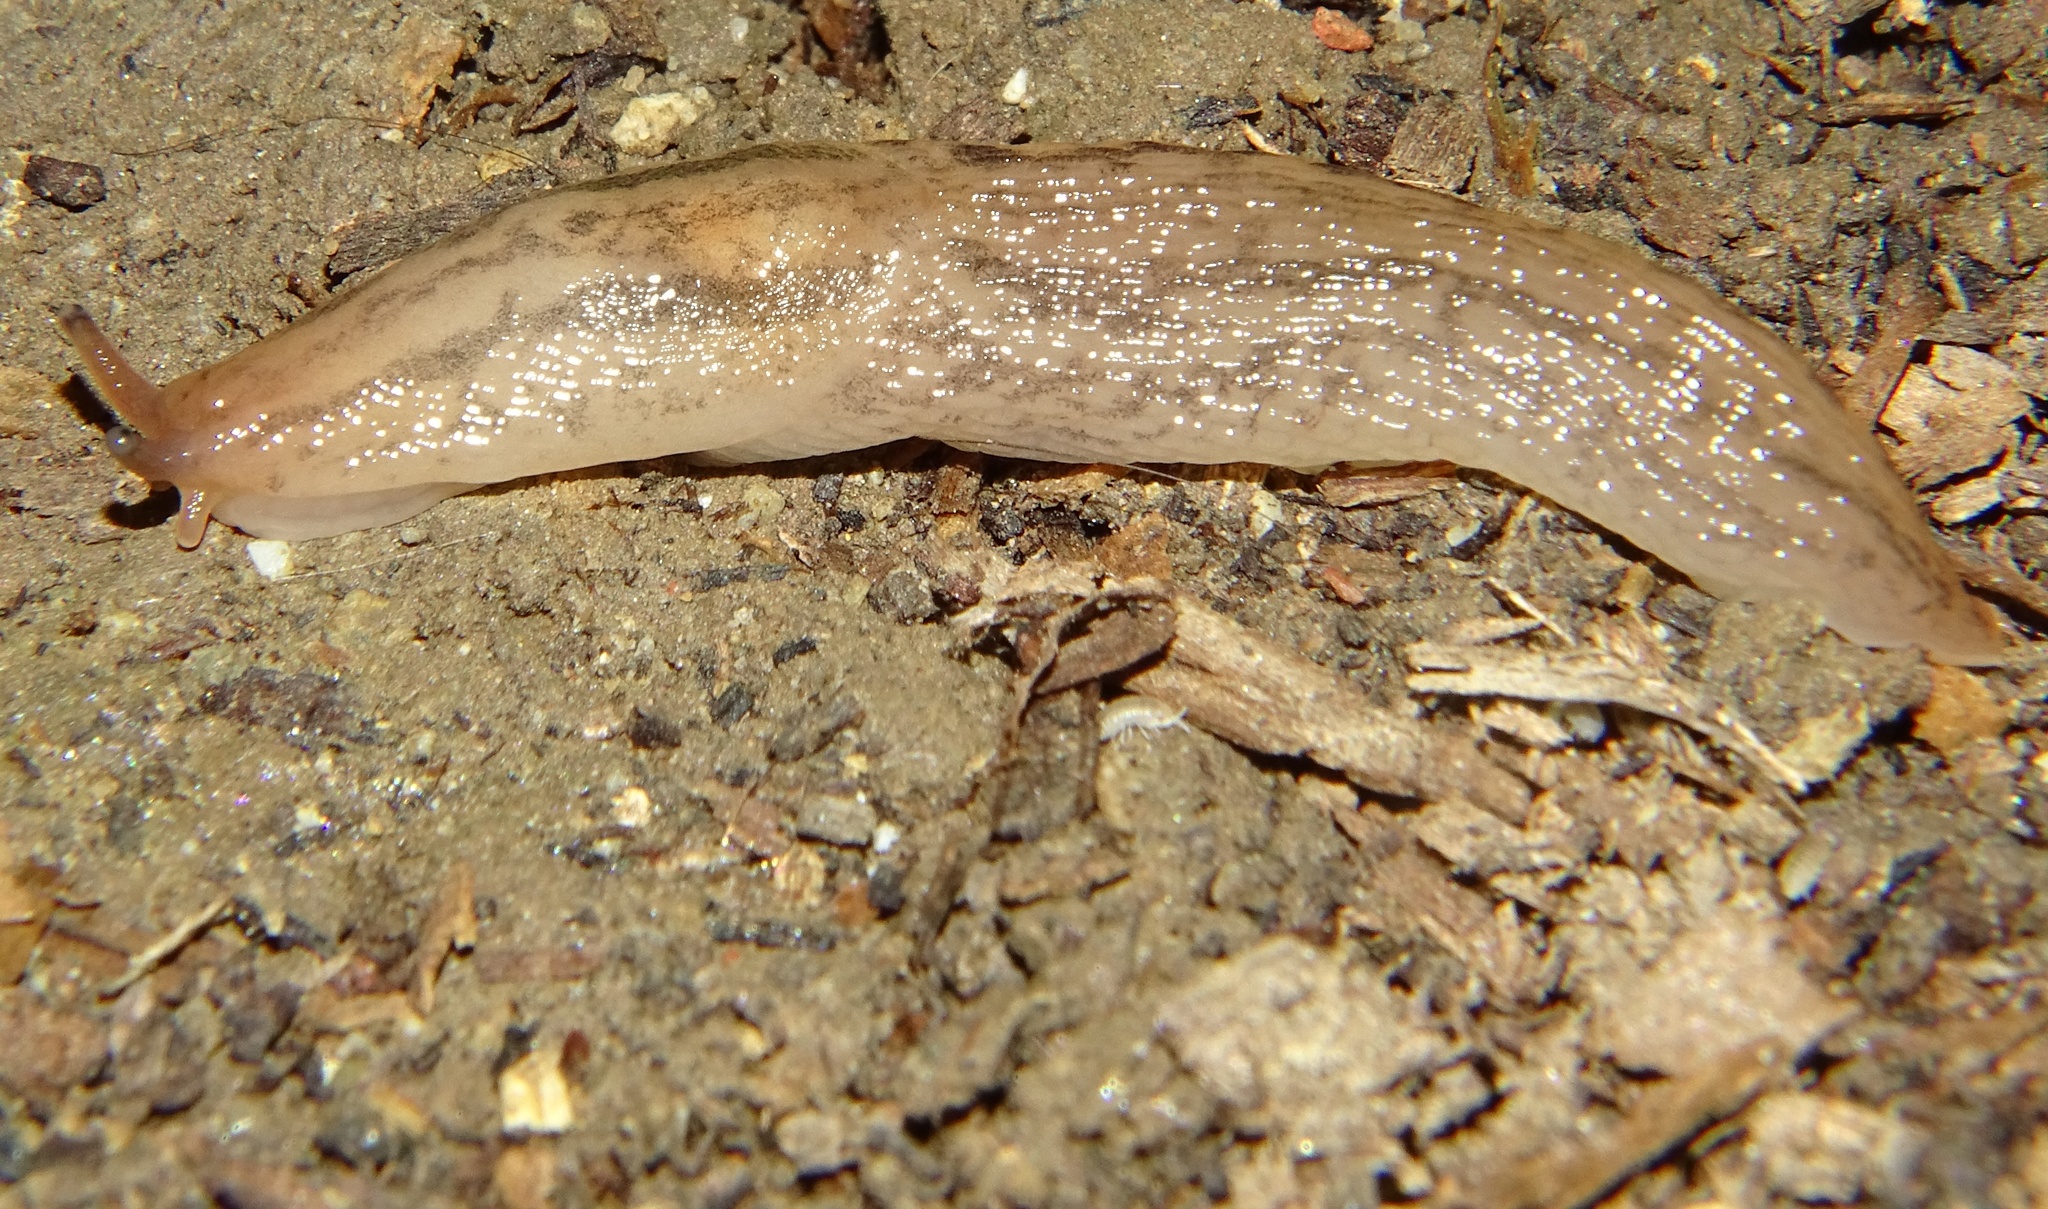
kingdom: Animalia
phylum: Mollusca
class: Gastropoda
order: Stylommatophora
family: Limacidae
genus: Ambigolimax
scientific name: Ambigolimax
